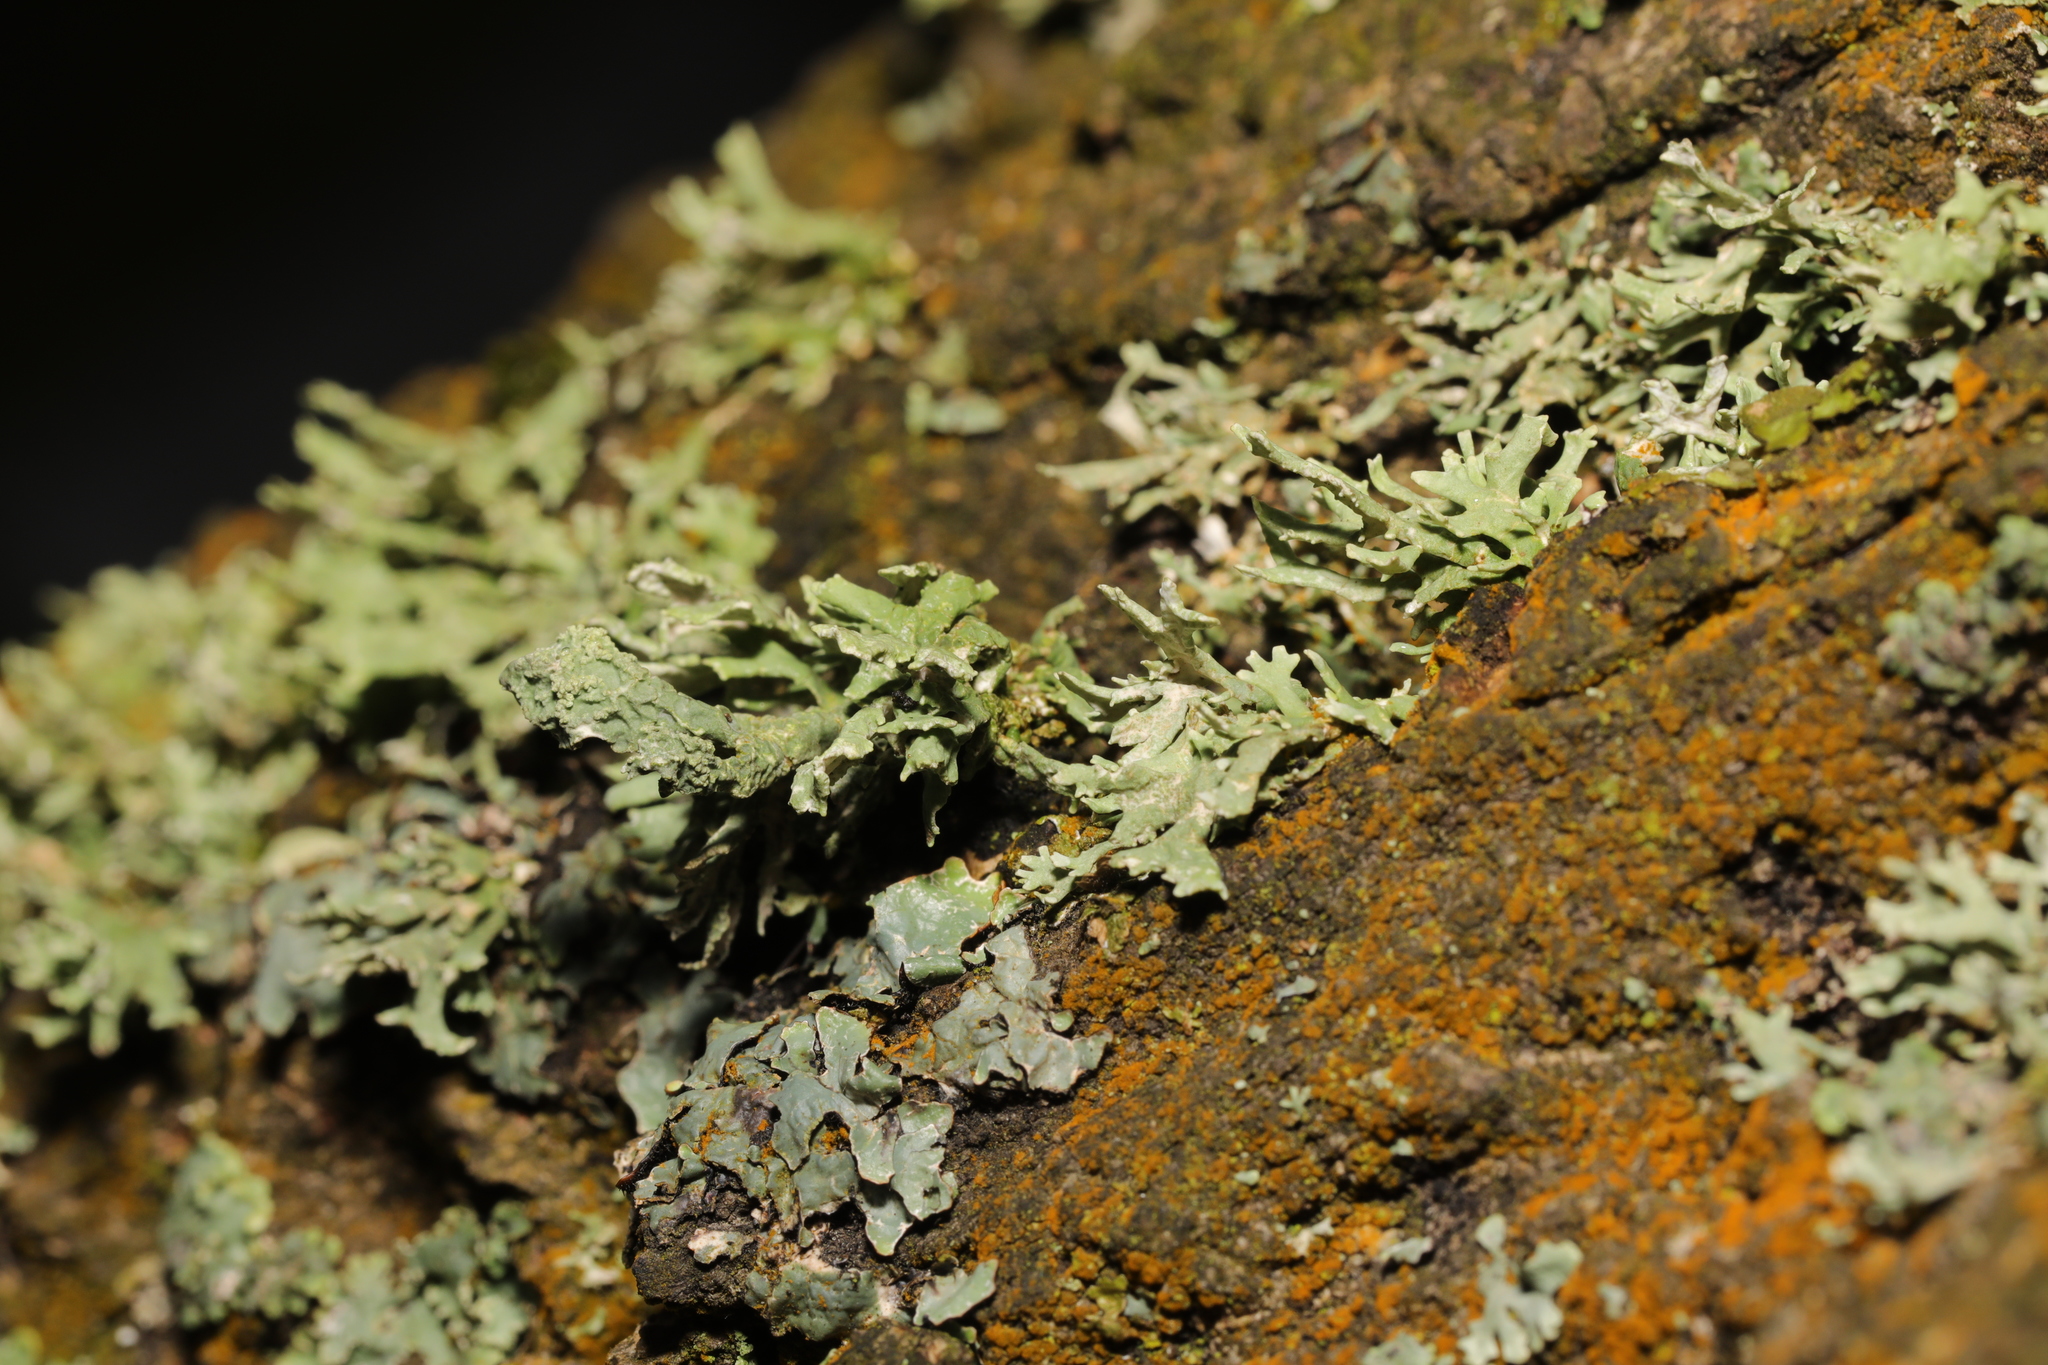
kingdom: Fungi
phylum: Ascomycota
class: Lecanoromycetes
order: Lecanorales
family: Parmeliaceae
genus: Evernia
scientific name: Evernia prunastri
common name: Oak moss
